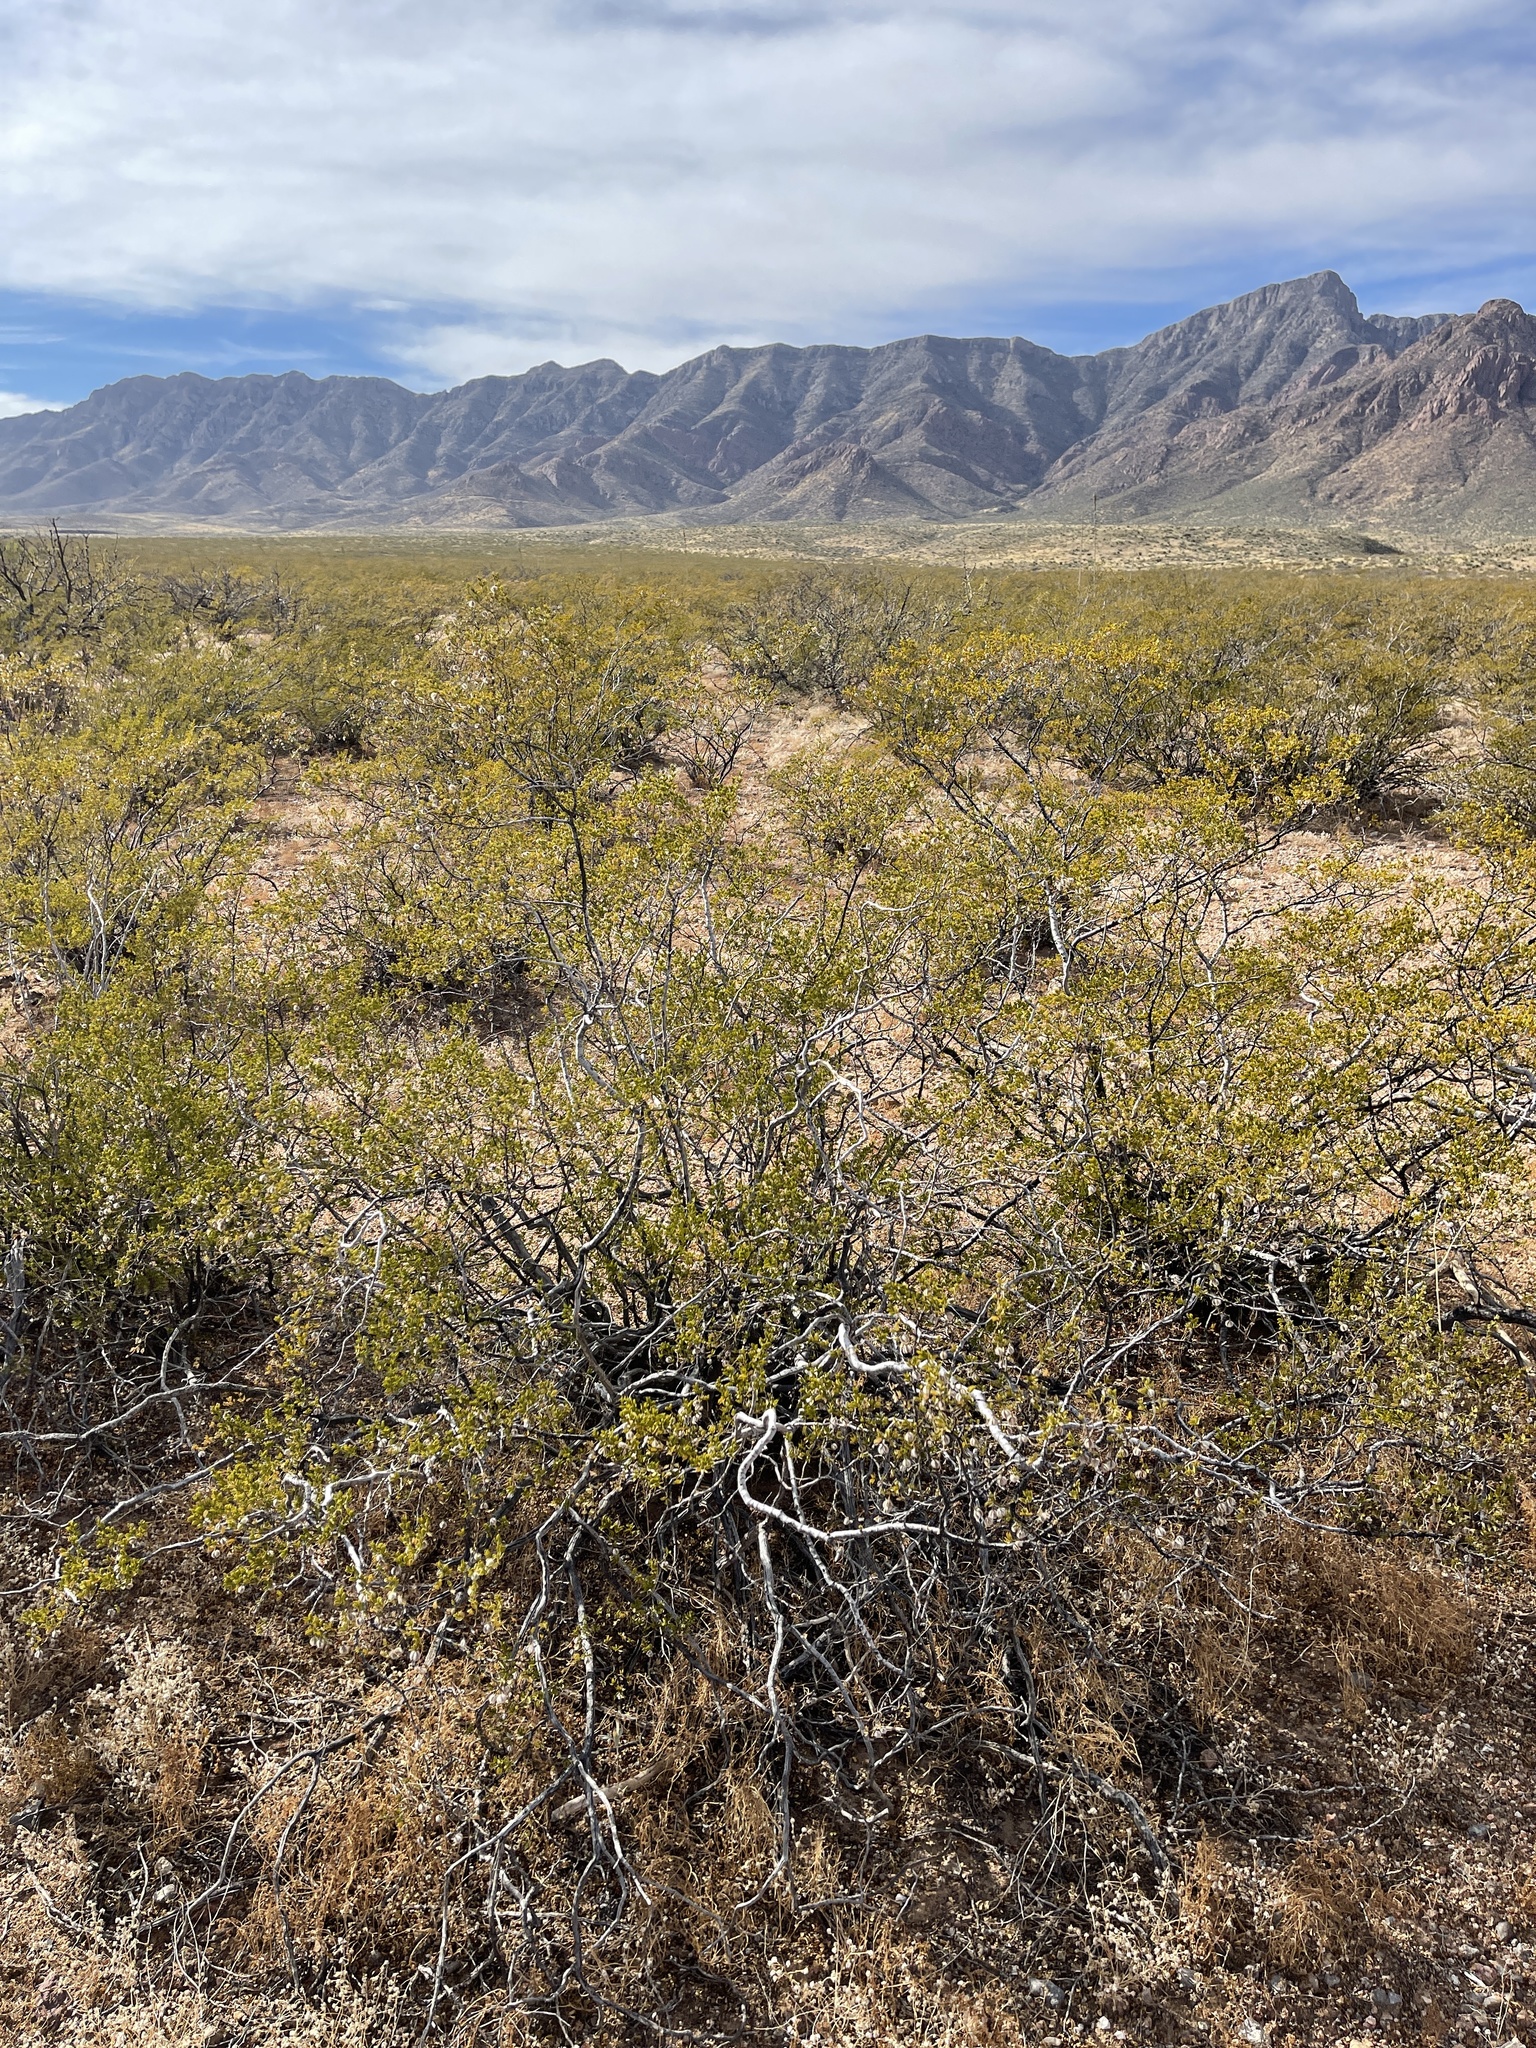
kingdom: Plantae
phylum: Tracheophyta
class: Magnoliopsida
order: Zygophyllales
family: Zygophyllaceae
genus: Larrea
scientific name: Larrea tridentata
